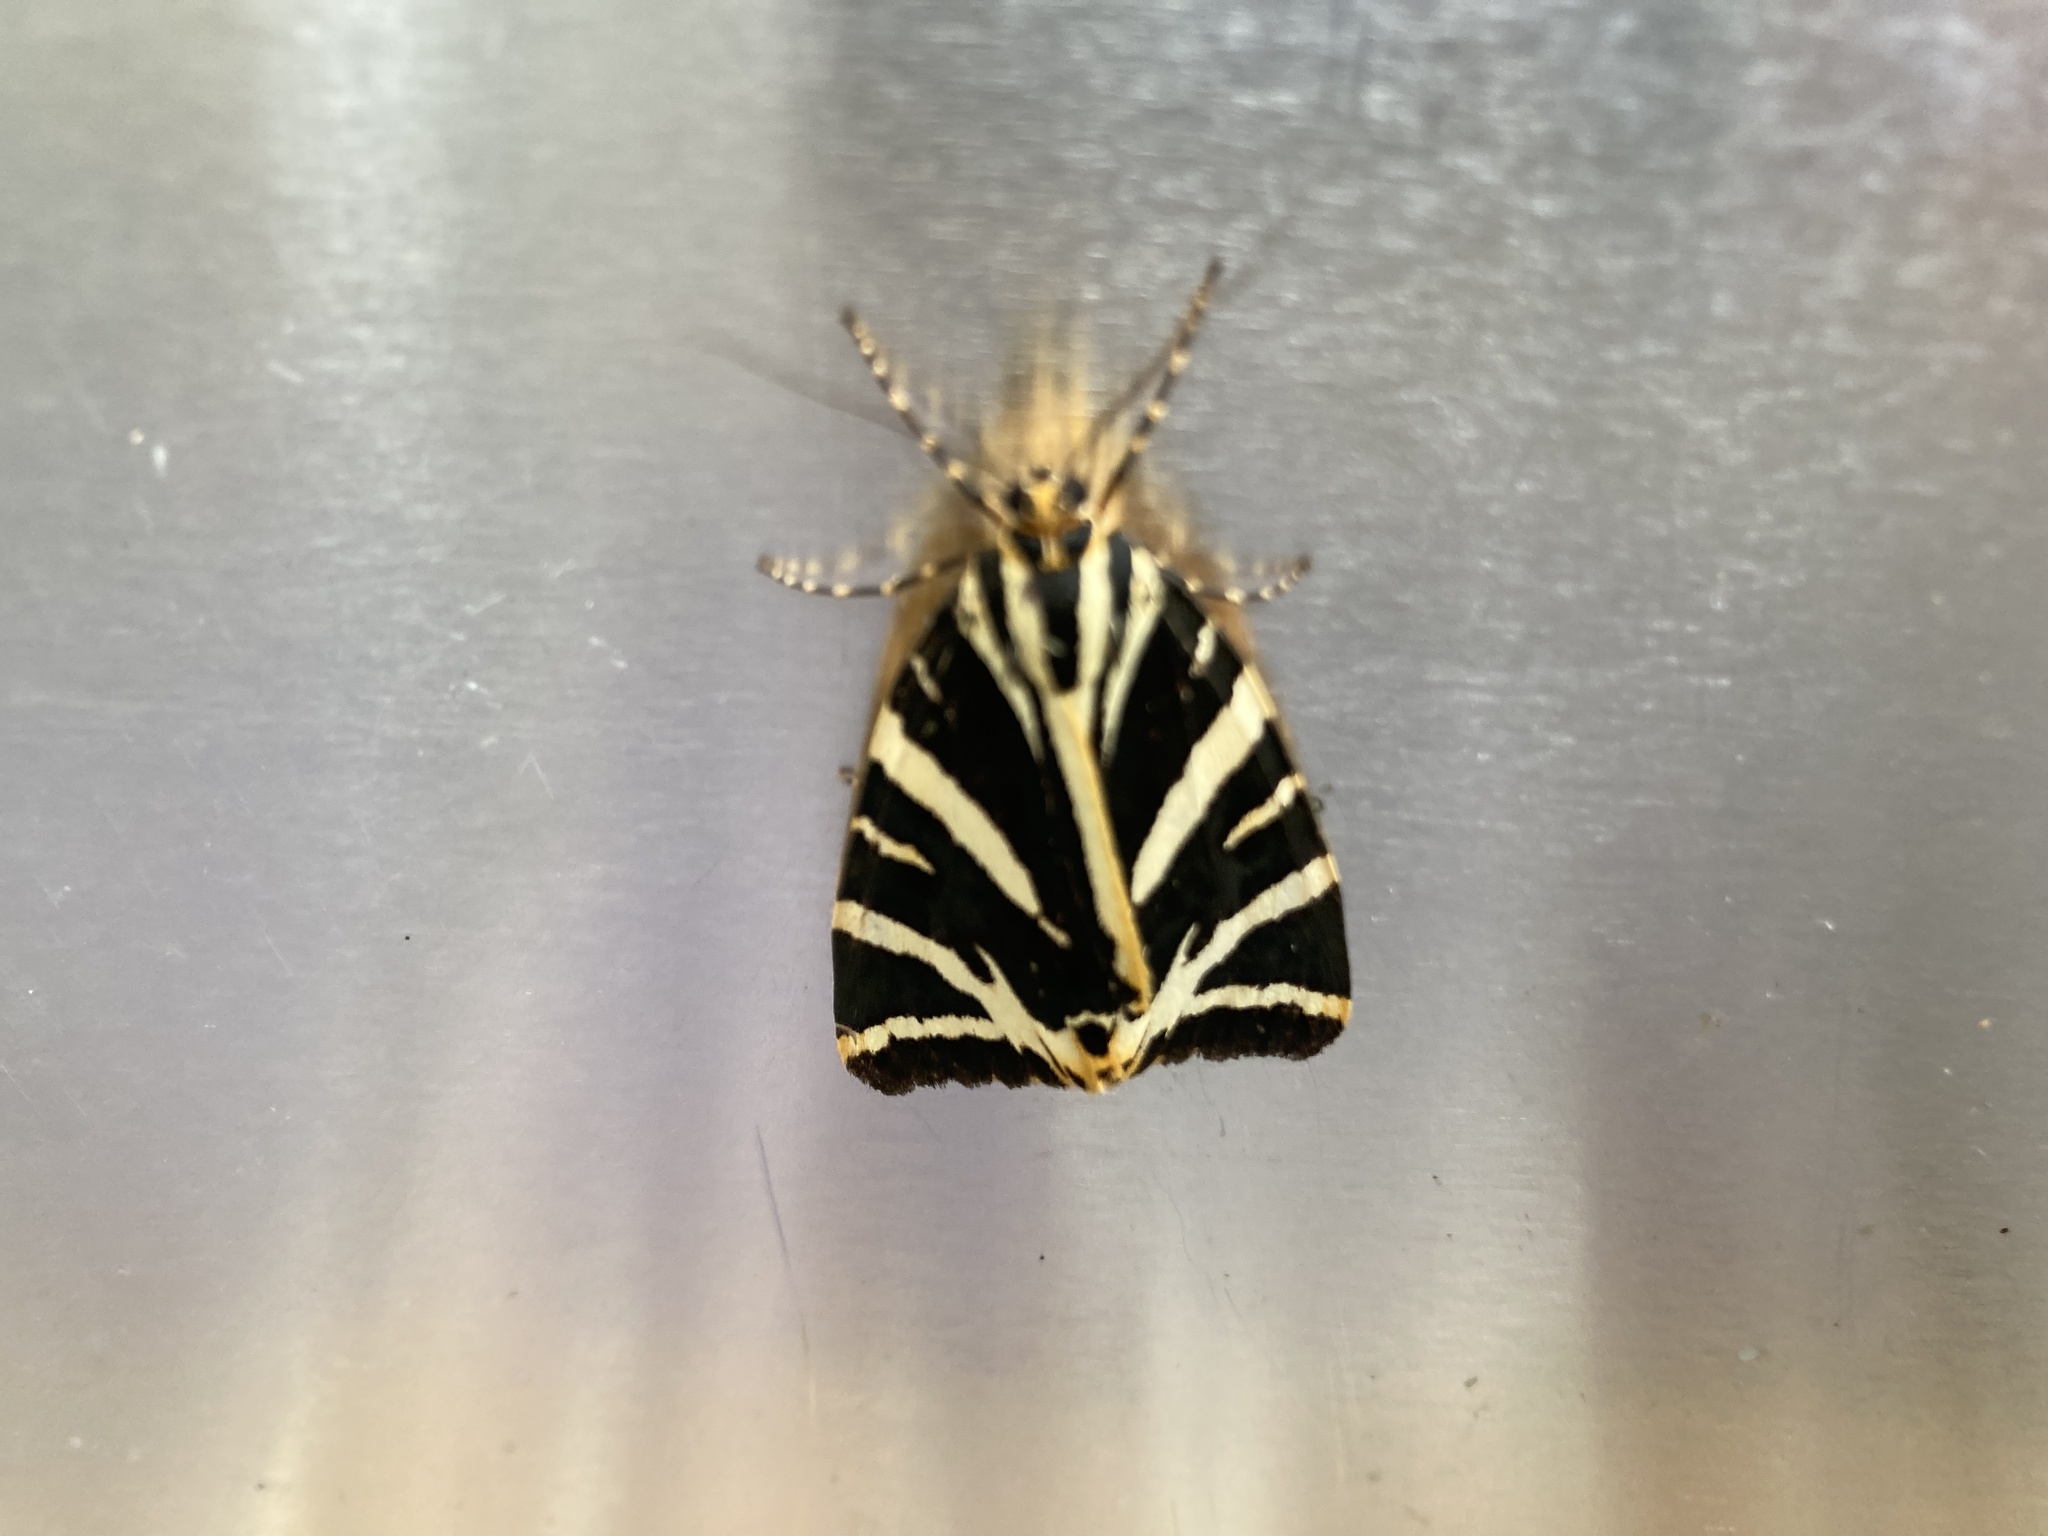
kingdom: Animalia
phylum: Arthropoda
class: Insecta
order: Lepidoptera
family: Erebidae
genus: Euplagia
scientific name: Euplagia quadripunctaria
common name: Jersey tiger
